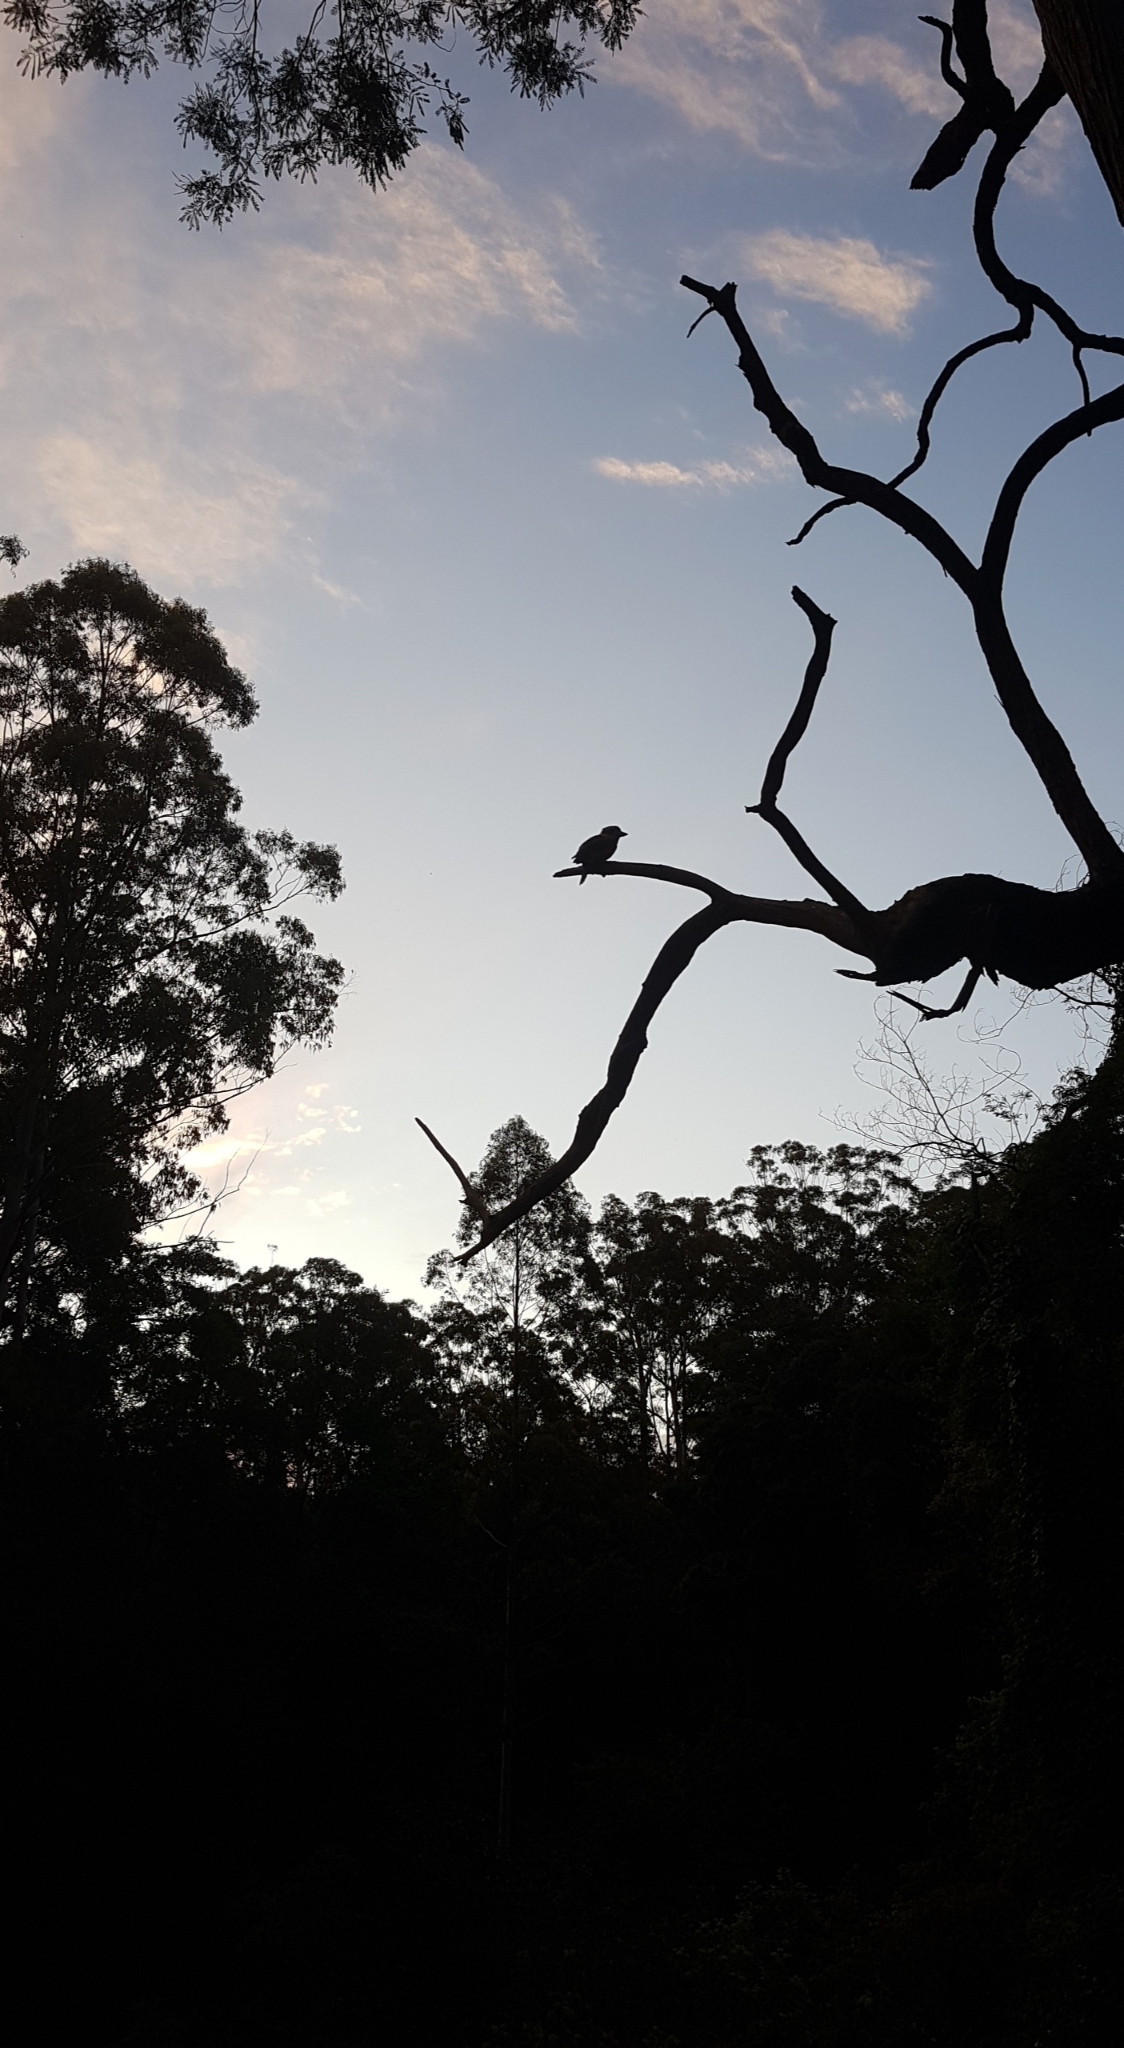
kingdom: Animalia
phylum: Chordata
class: Aves
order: Coraciiformes
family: Alcedinidae
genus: Dacelo
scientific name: Dacelo novaeguineae
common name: Laughing kookaburra
